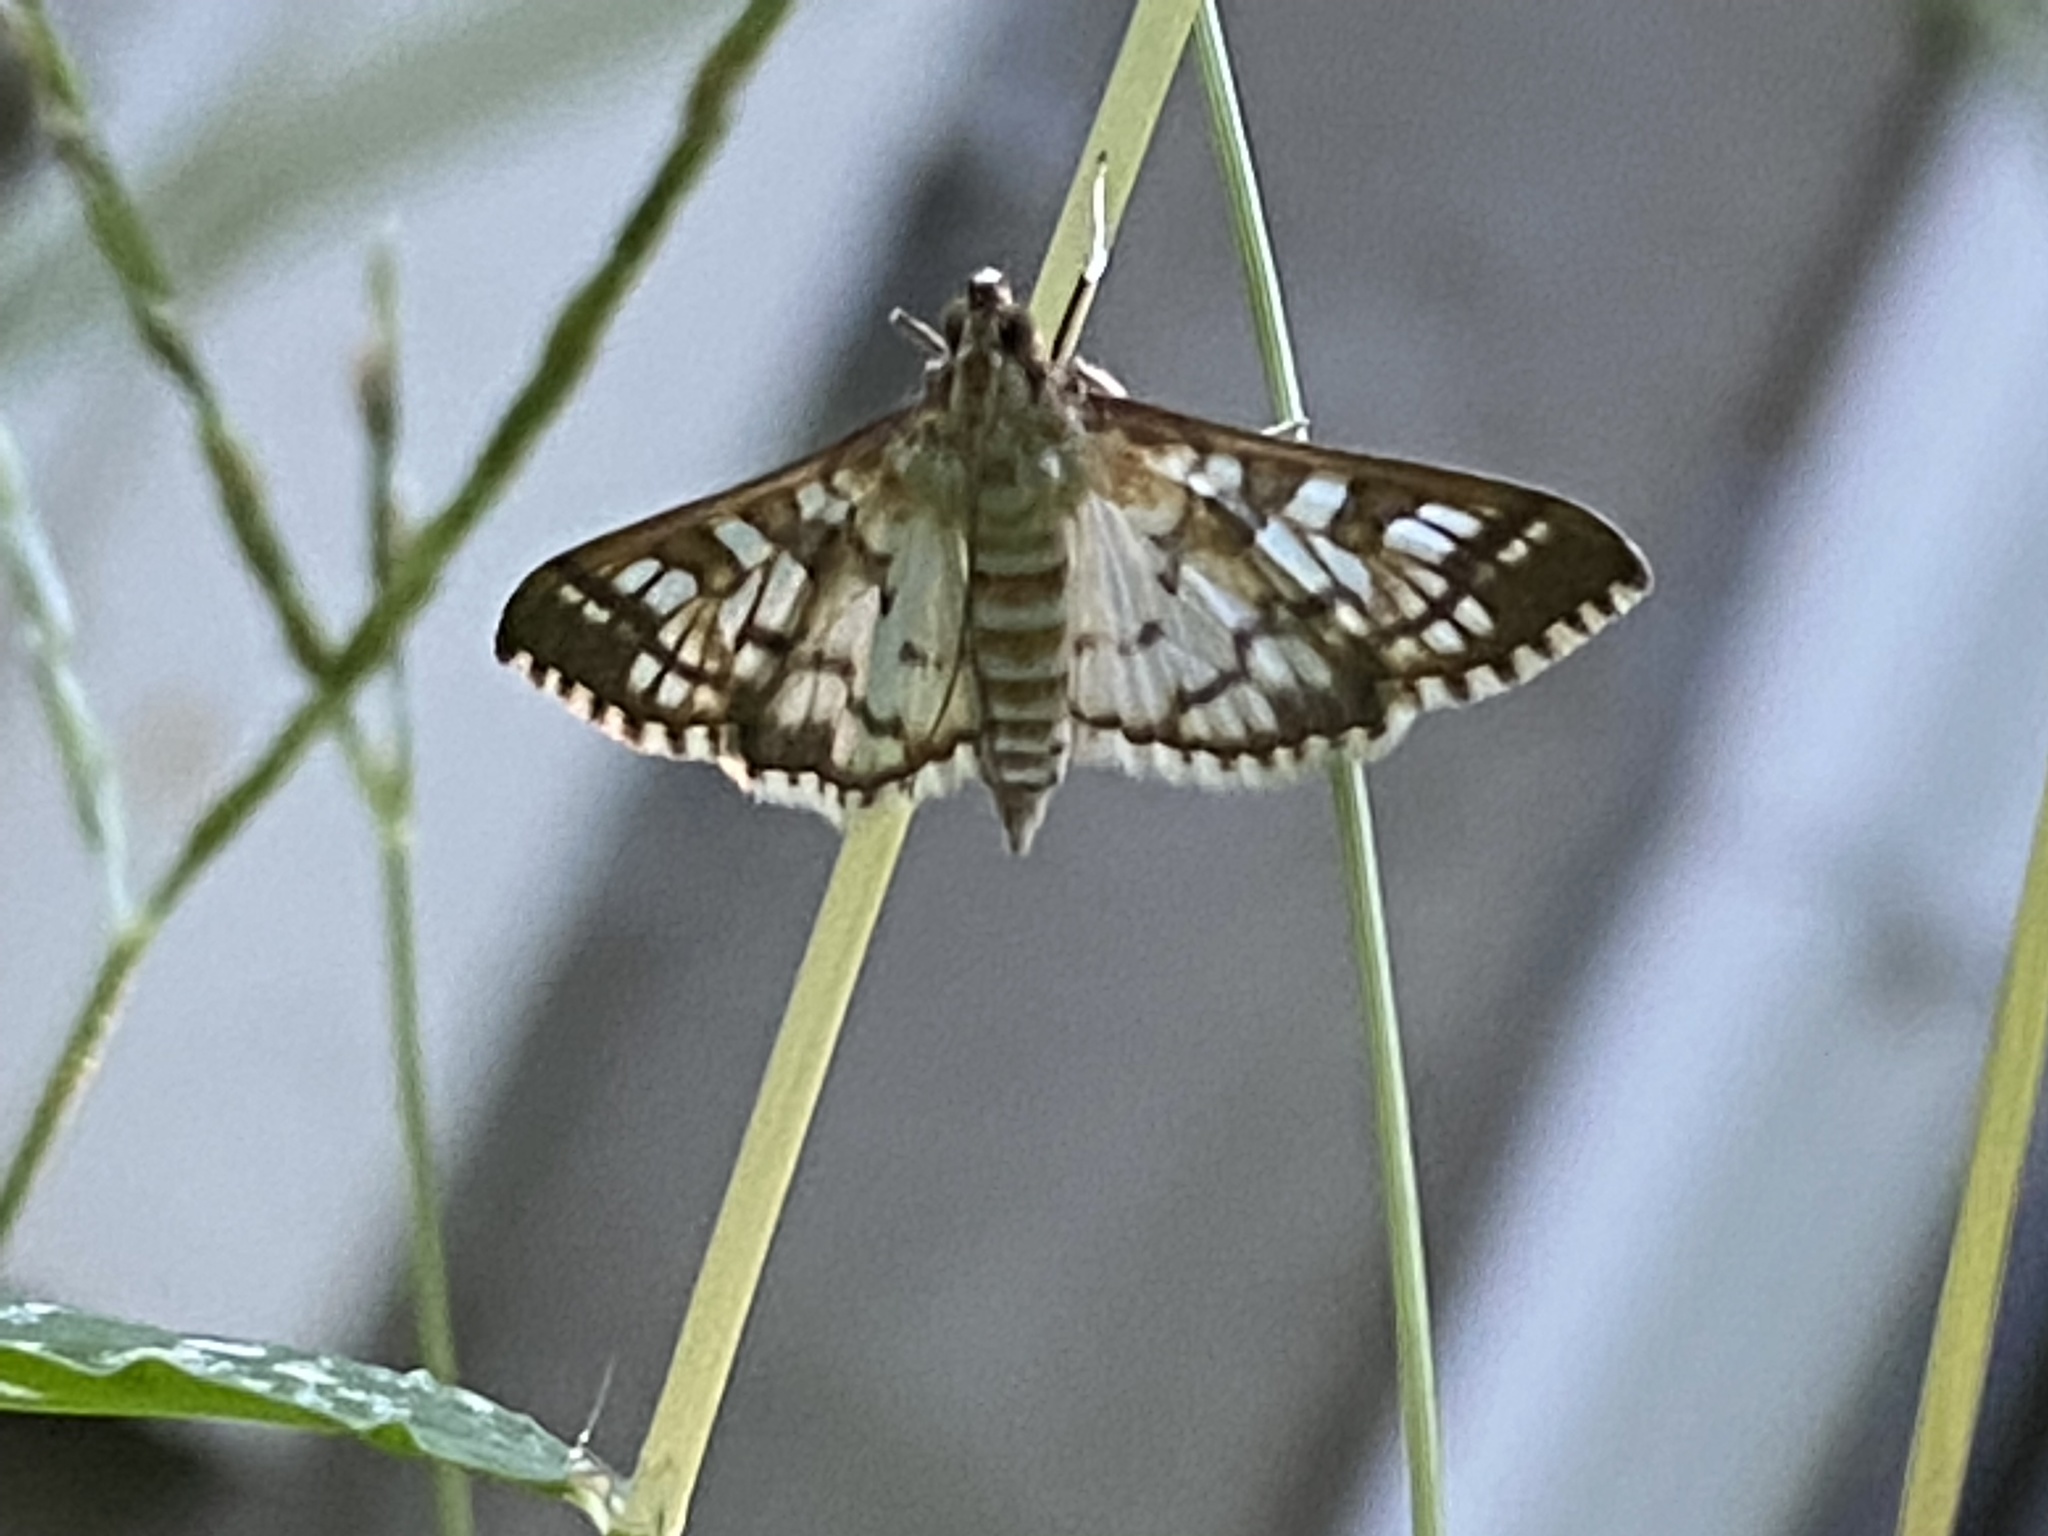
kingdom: Animalia
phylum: Arthropoda
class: Insecta
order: Lepidoptera
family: Crambidae
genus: Epipagis
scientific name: Epipagis fenestralis
